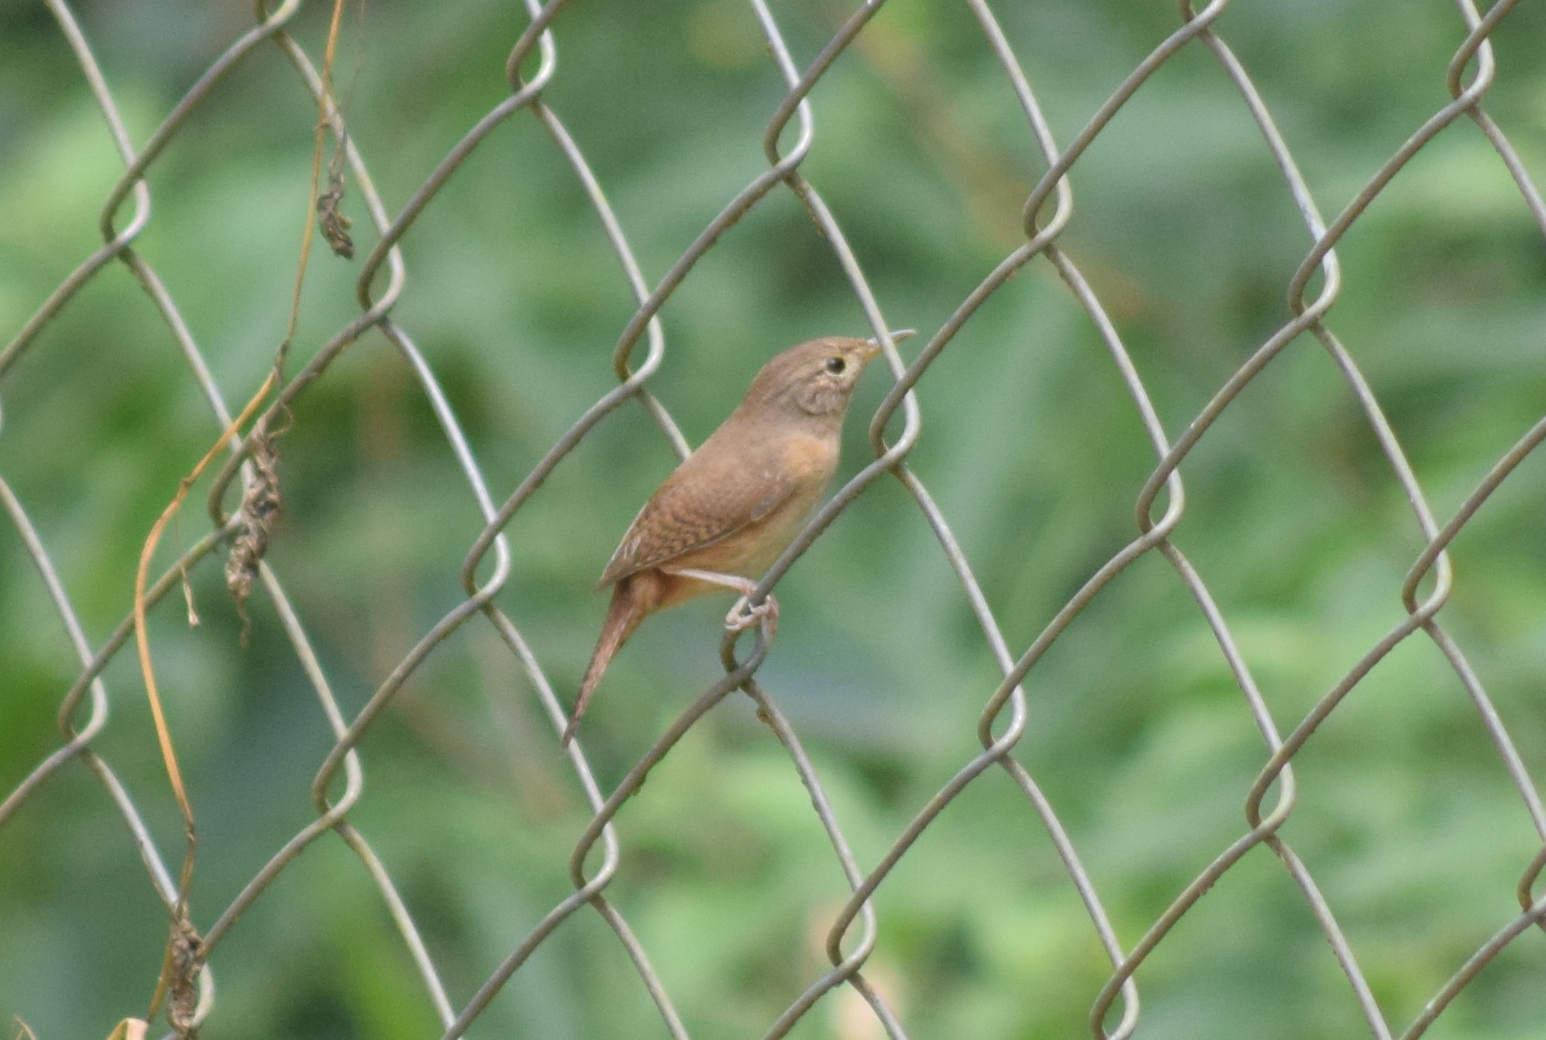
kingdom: Animalia
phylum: Chordata
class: Aves
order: Passeriformes
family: Troglodytidae
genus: Troglodytes
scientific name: Troglodytes aedon
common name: House wren
